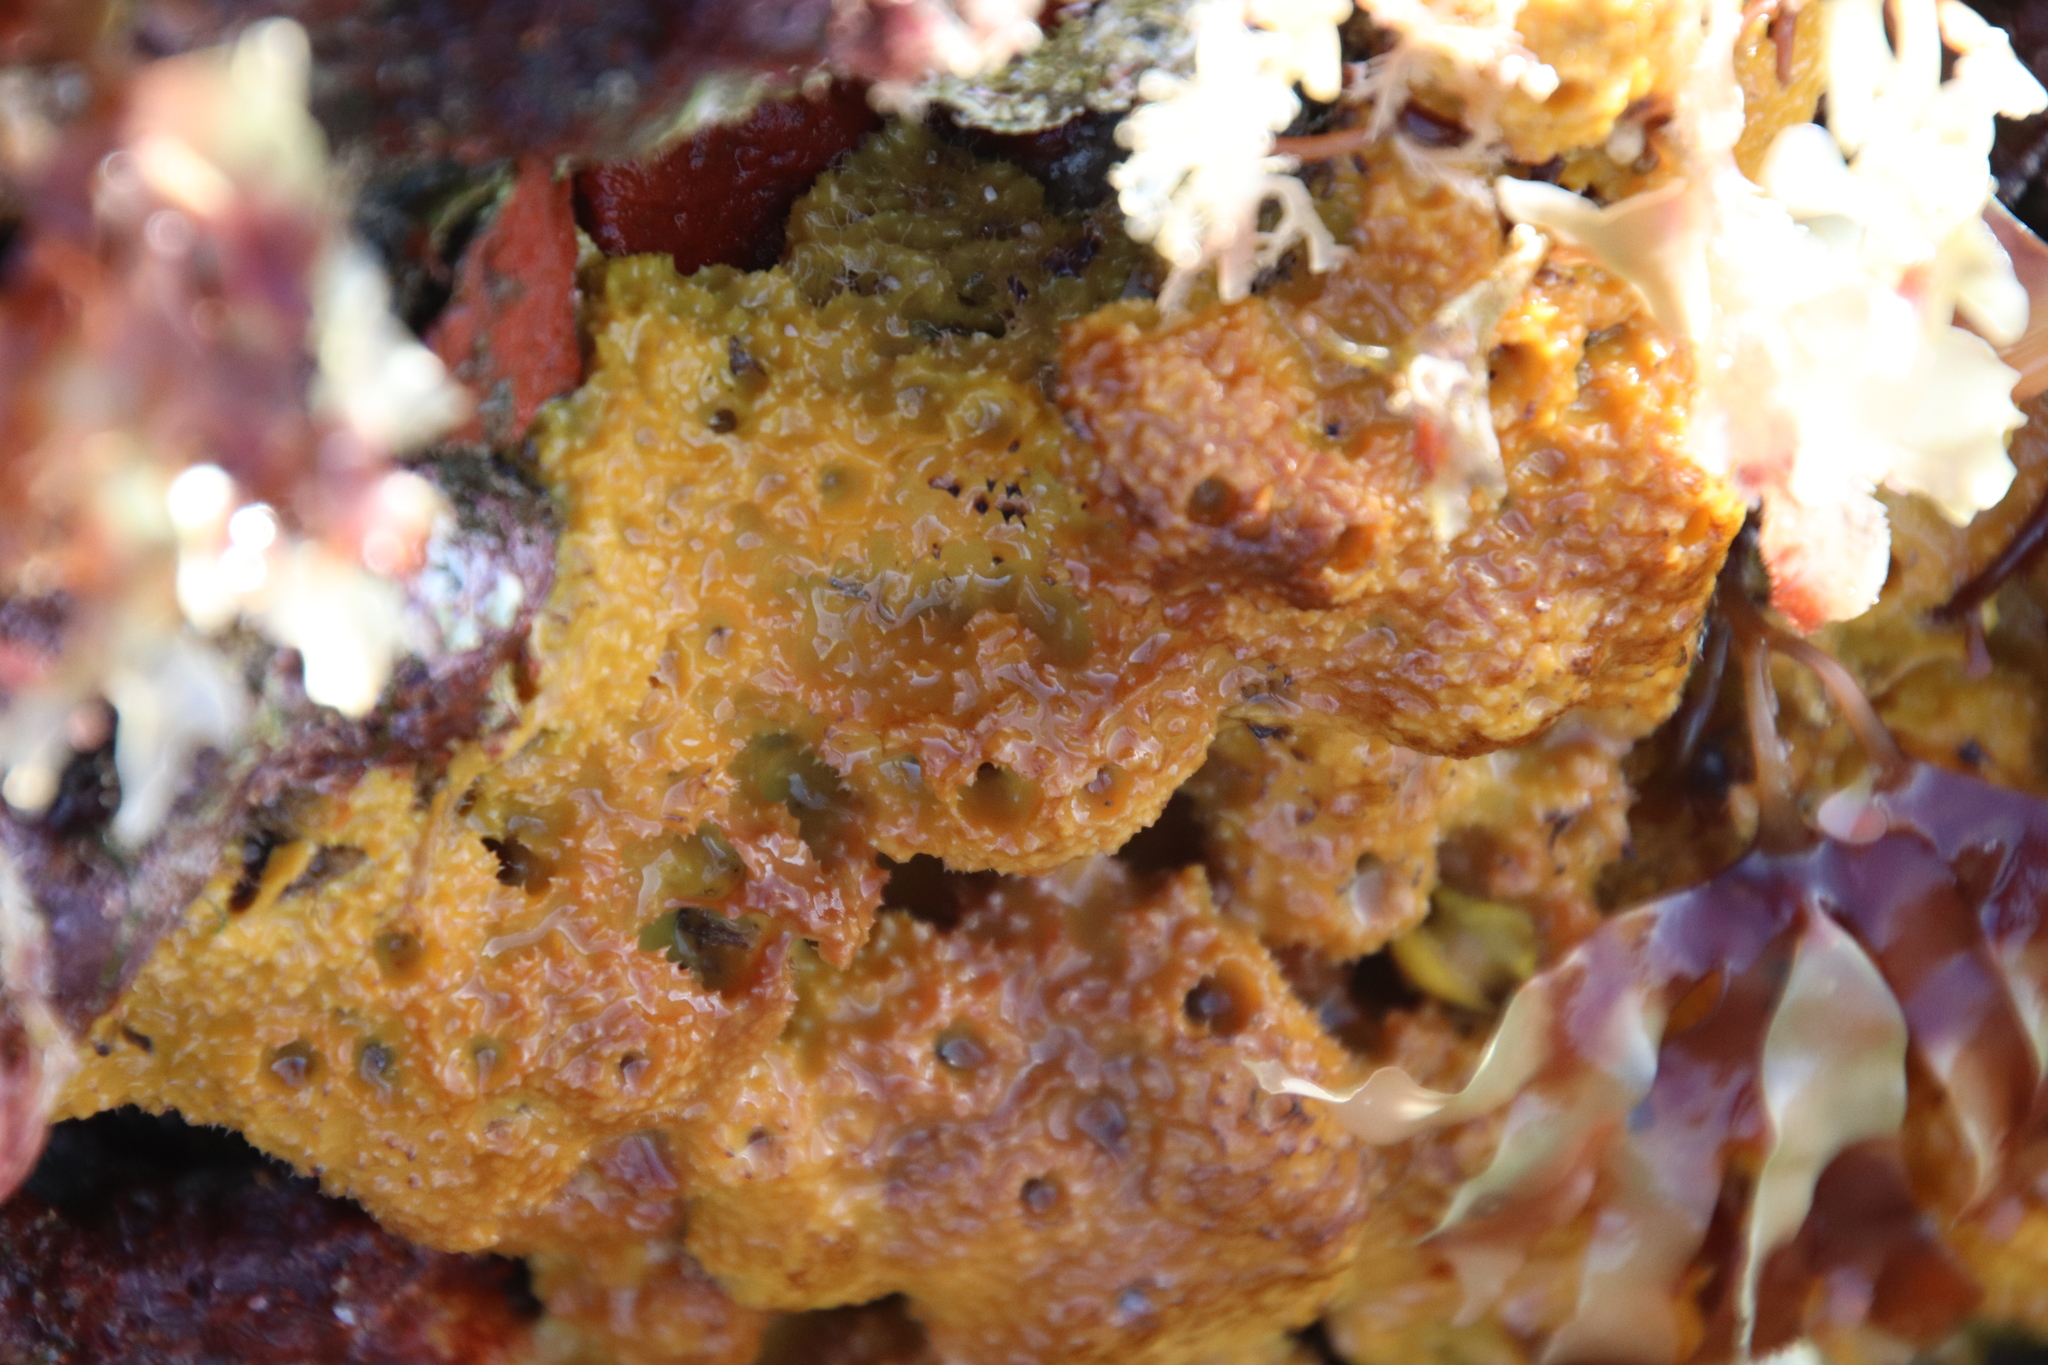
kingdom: Animalia
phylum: Porifera
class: Demospongiae
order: Verongiida
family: Aplysinidae
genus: Aiolochroia
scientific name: Aiolochroia thiona
